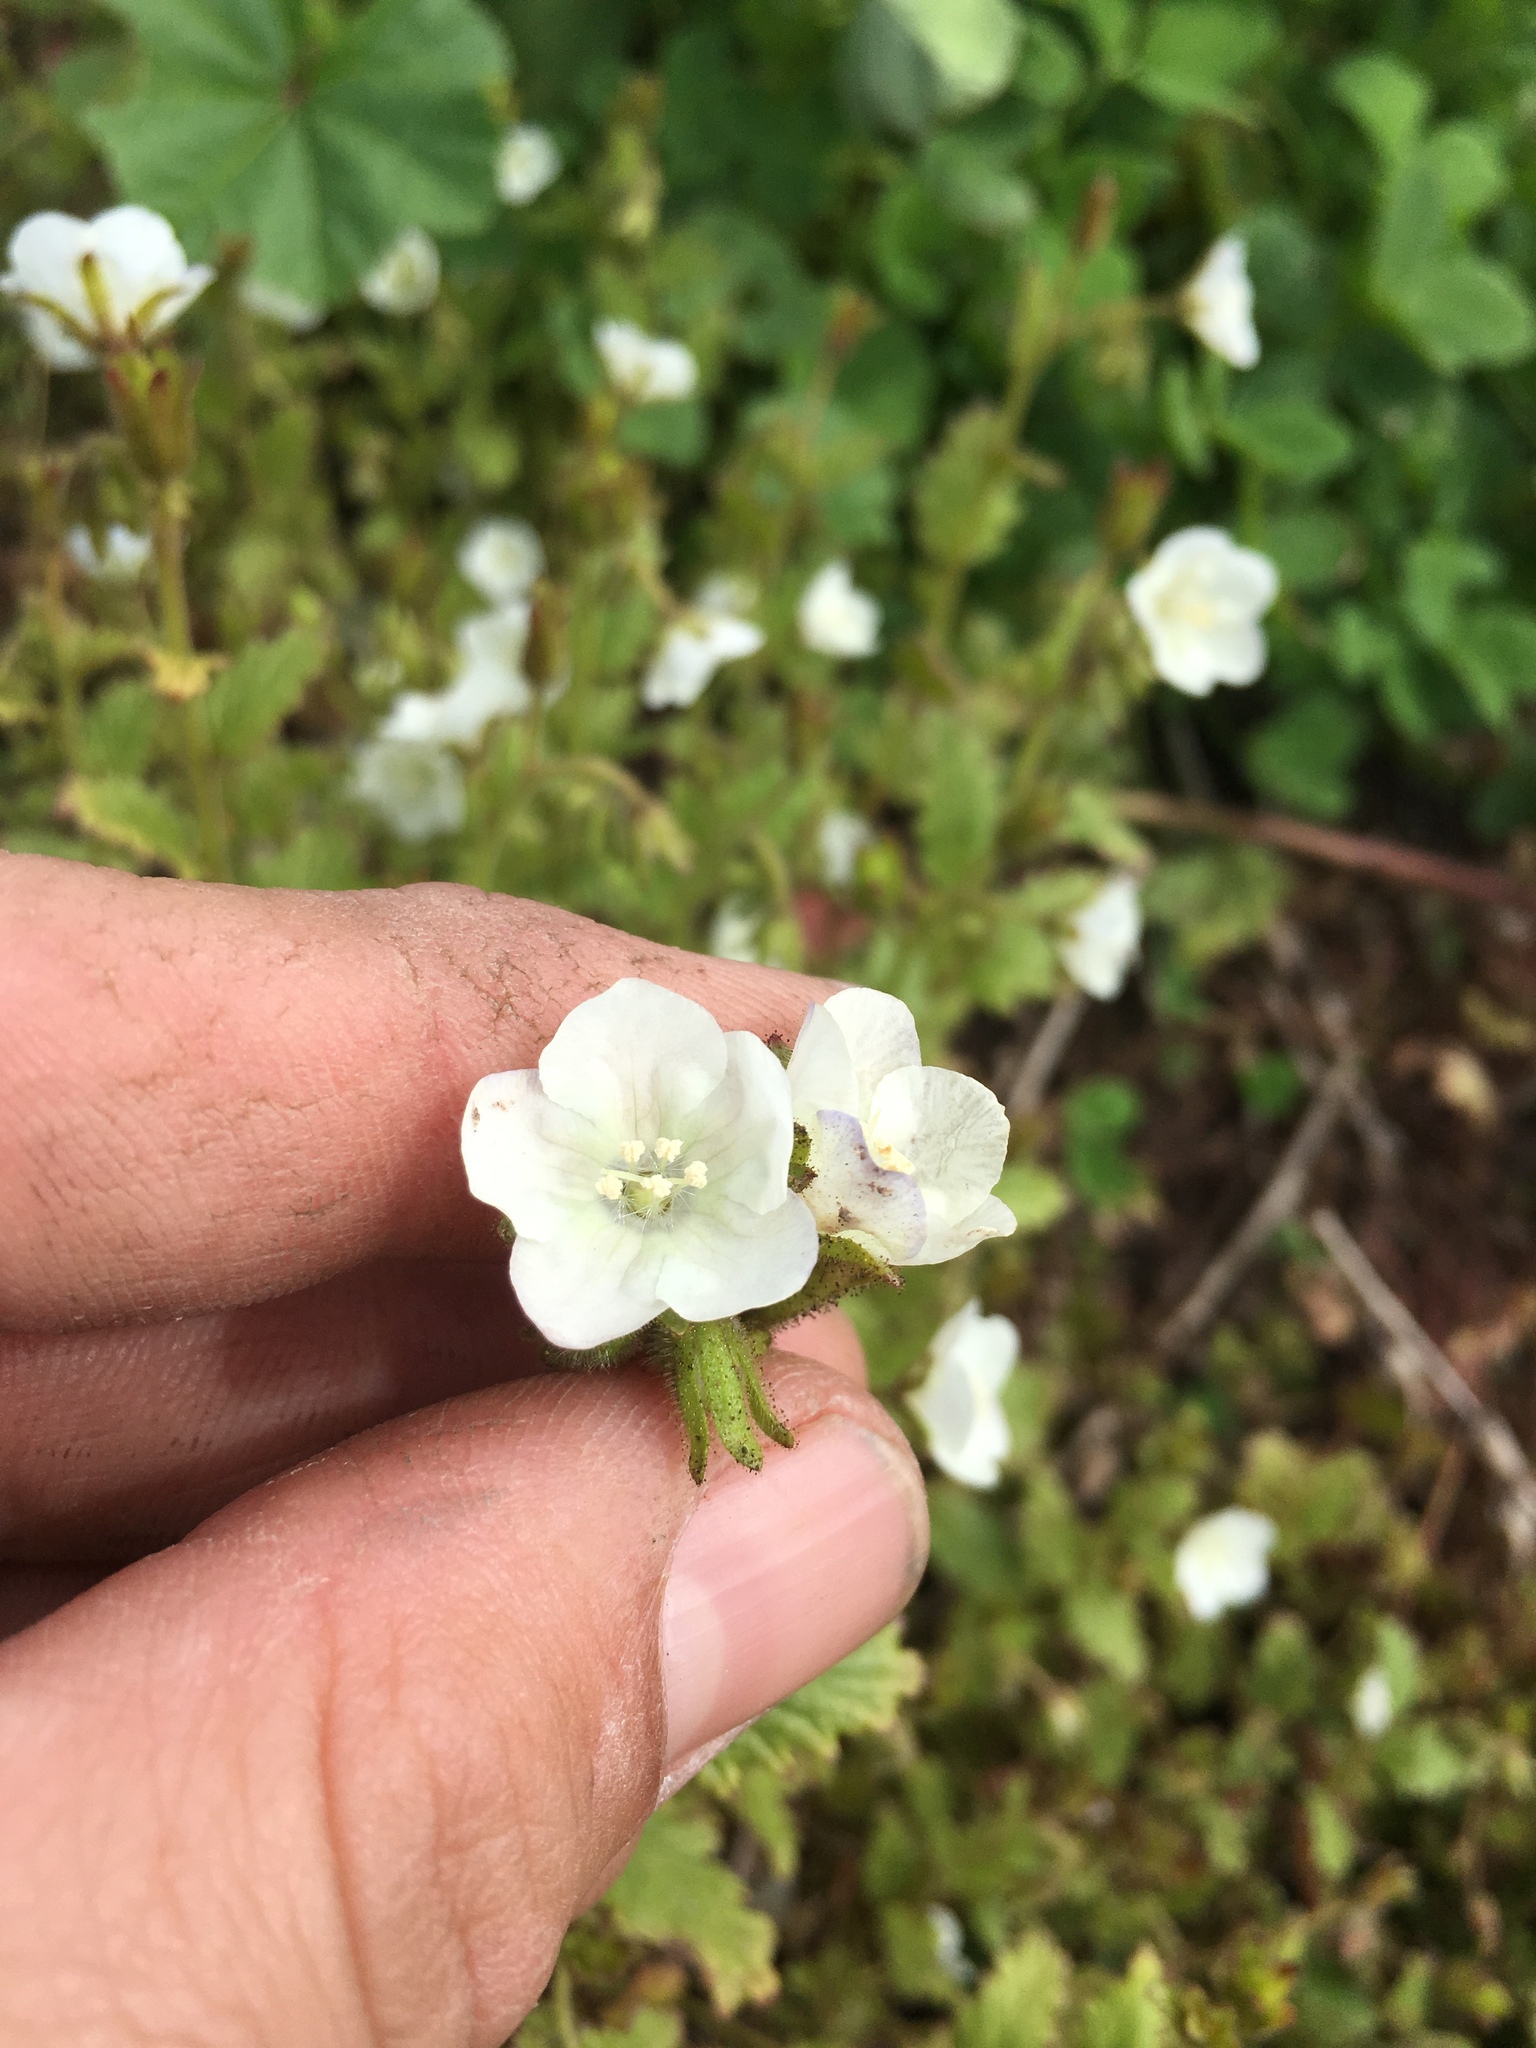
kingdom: Plantae
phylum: Tracheophyta
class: Magnoliopsida
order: Boraginales
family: Hydrophyllaceae
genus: Phacelia
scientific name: Phacelia viscida
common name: Sticky phacelia
